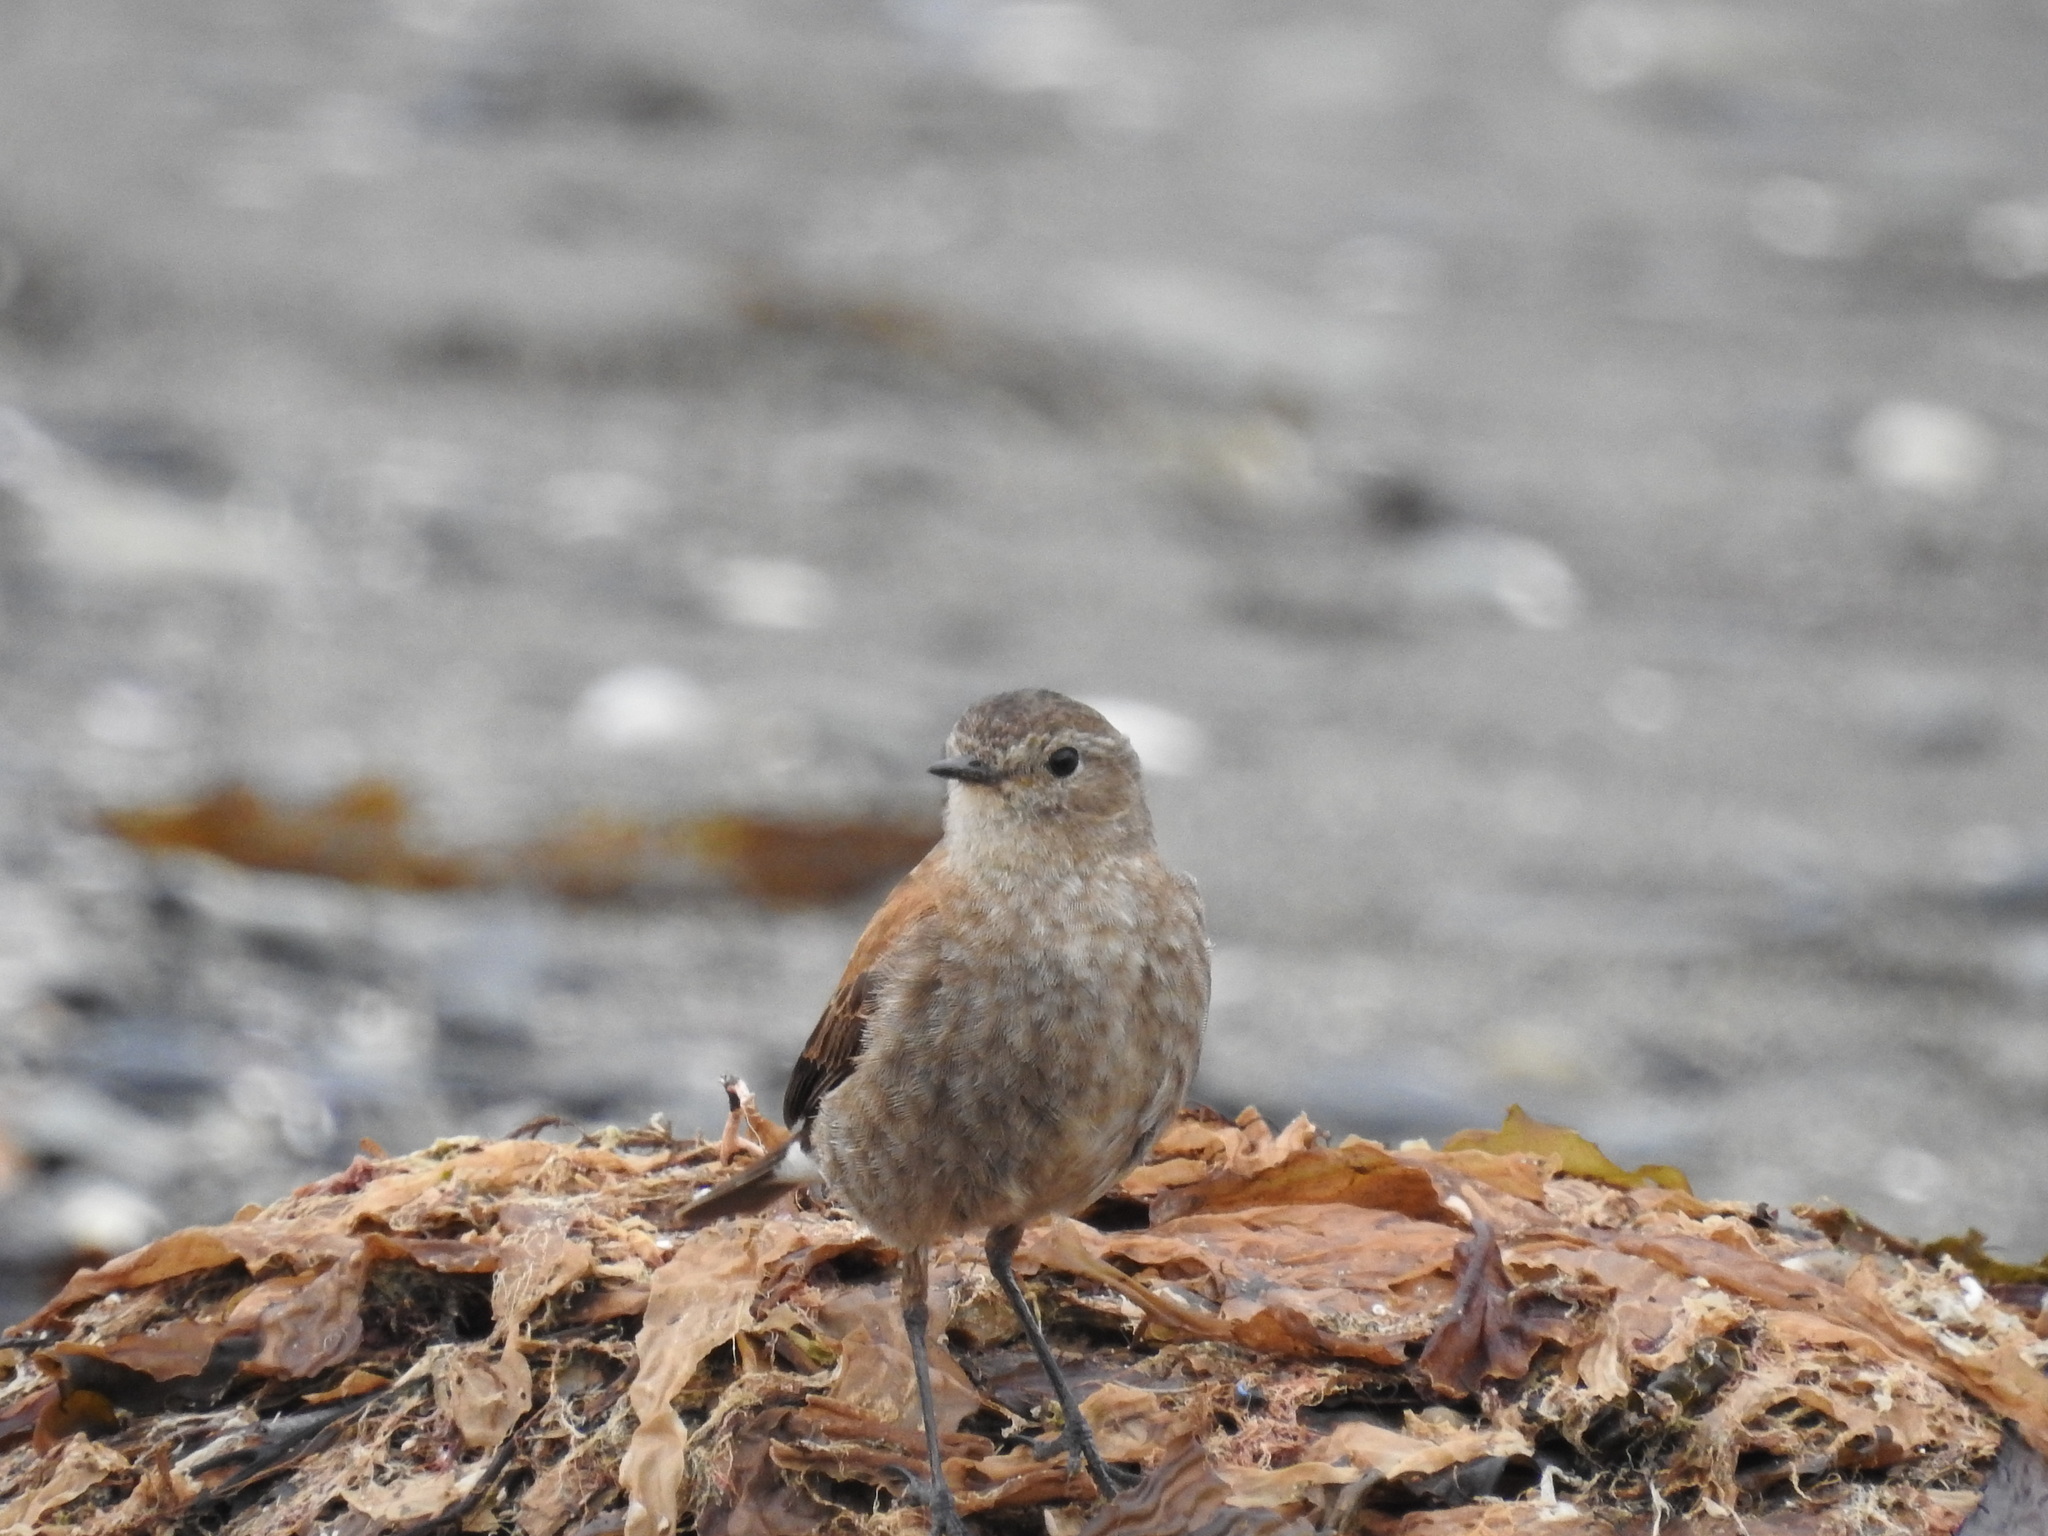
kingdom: Animalia
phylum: Chordata
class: Aves
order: Passeriformes
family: Tyrannidae
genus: Lessonia
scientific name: Lessonia rufa
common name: Austral negrito
